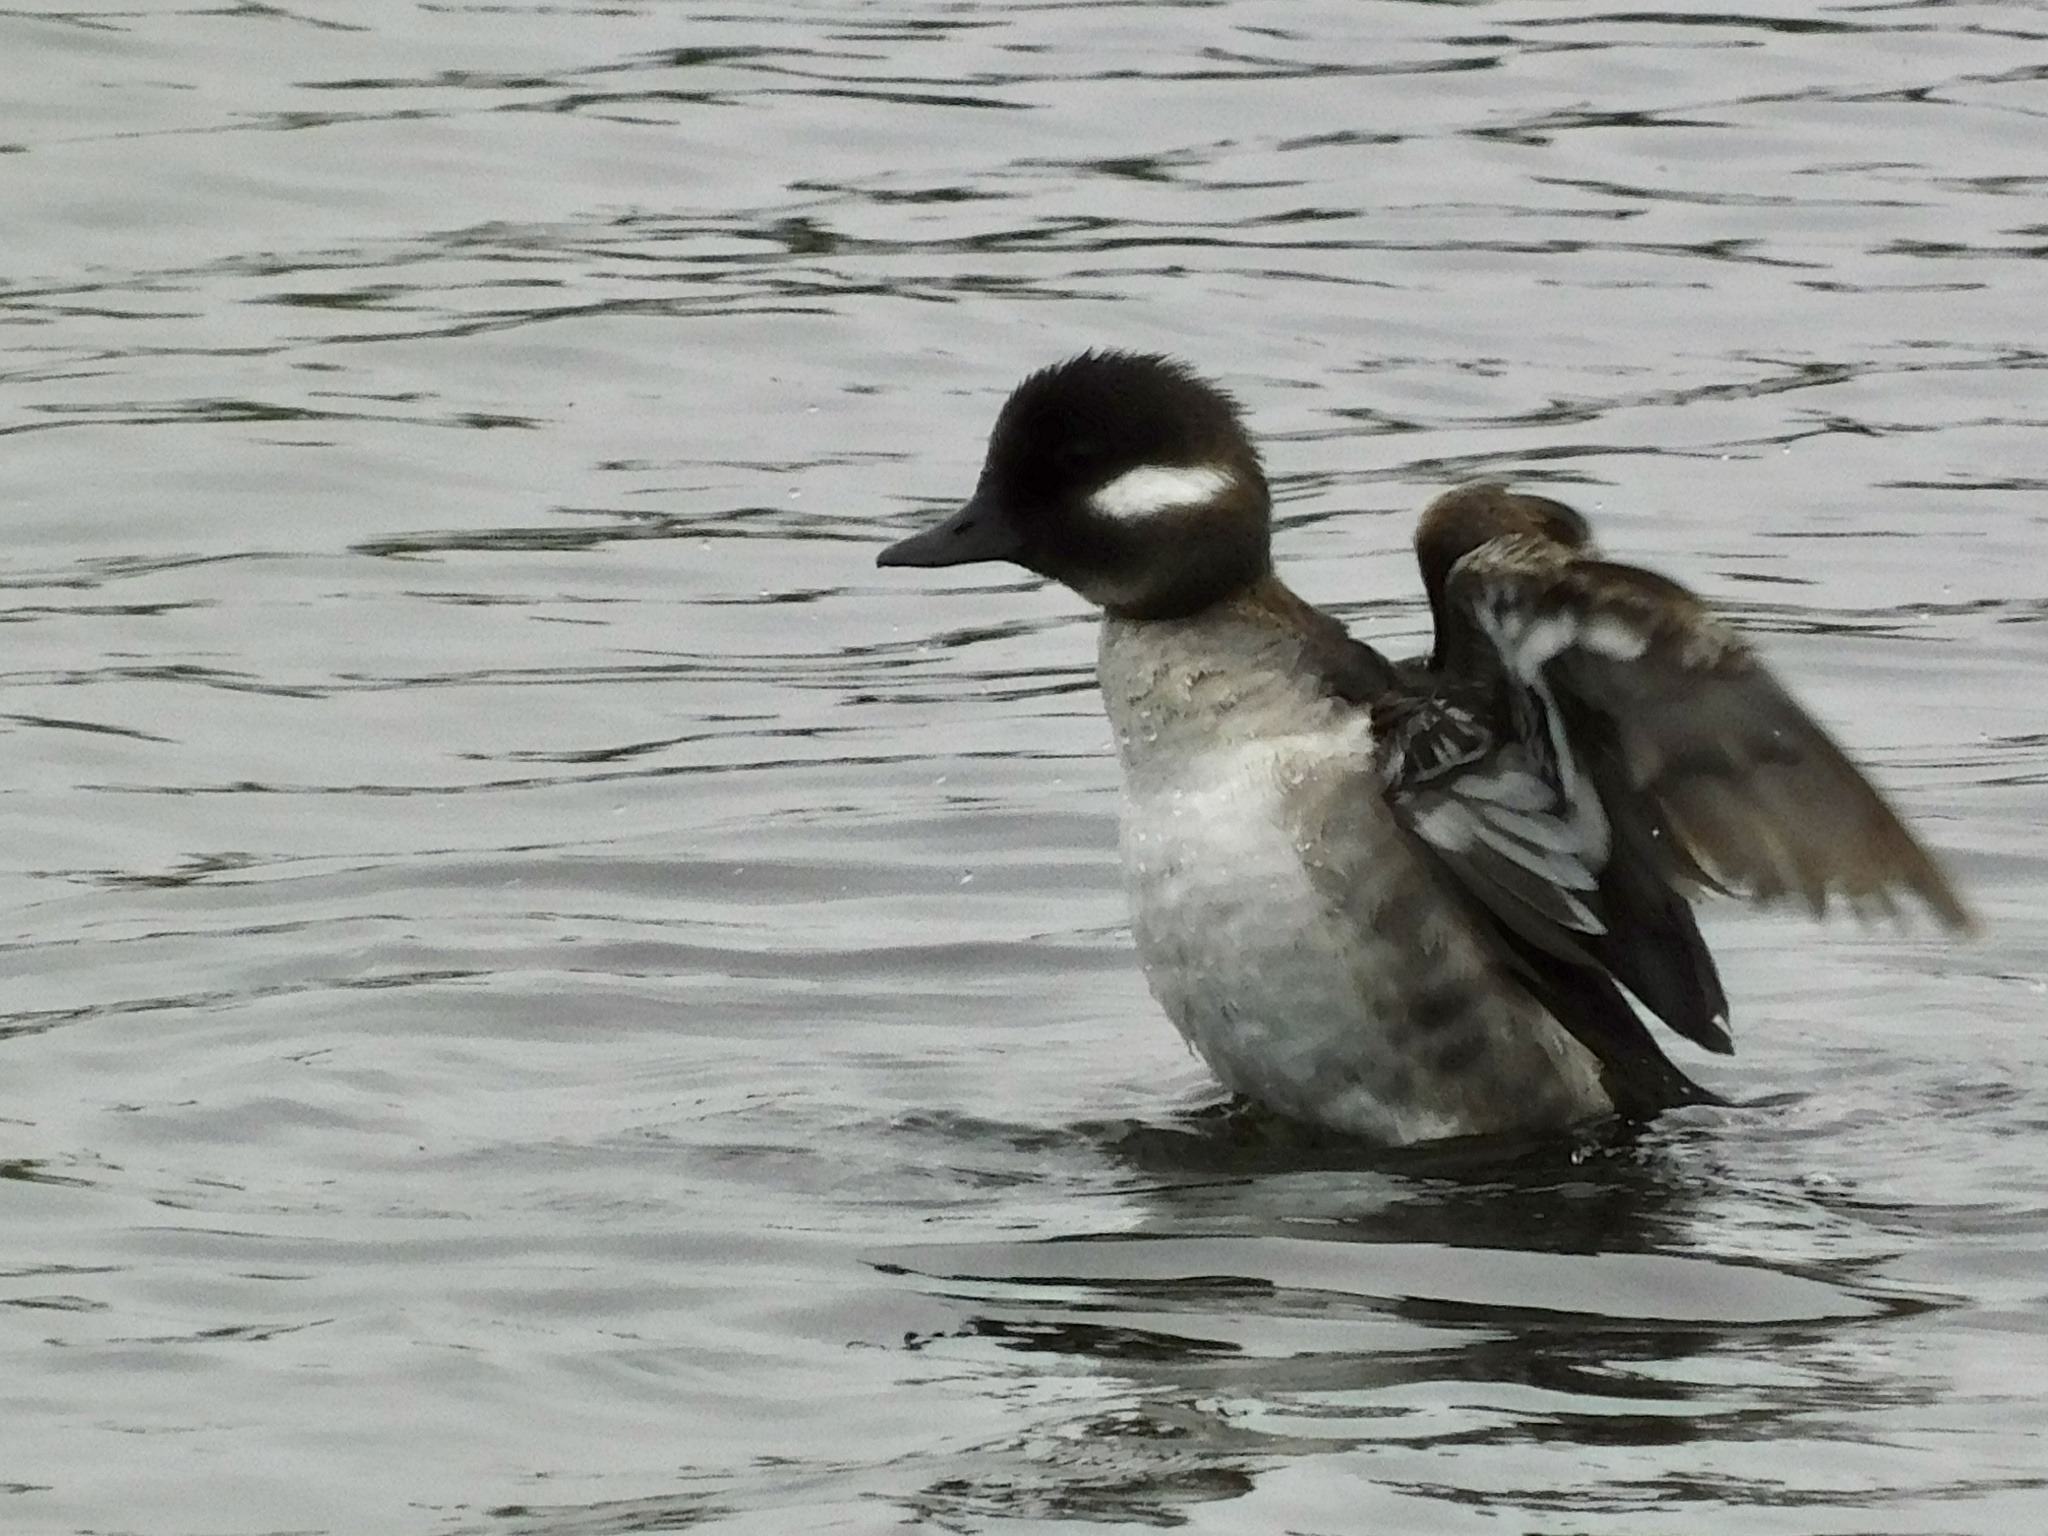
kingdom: Animalia
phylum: Chordata
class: Aves
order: Anseriformes
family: Anatidae
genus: Bucephala
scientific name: Bucephala albeola
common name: Bufflehead
